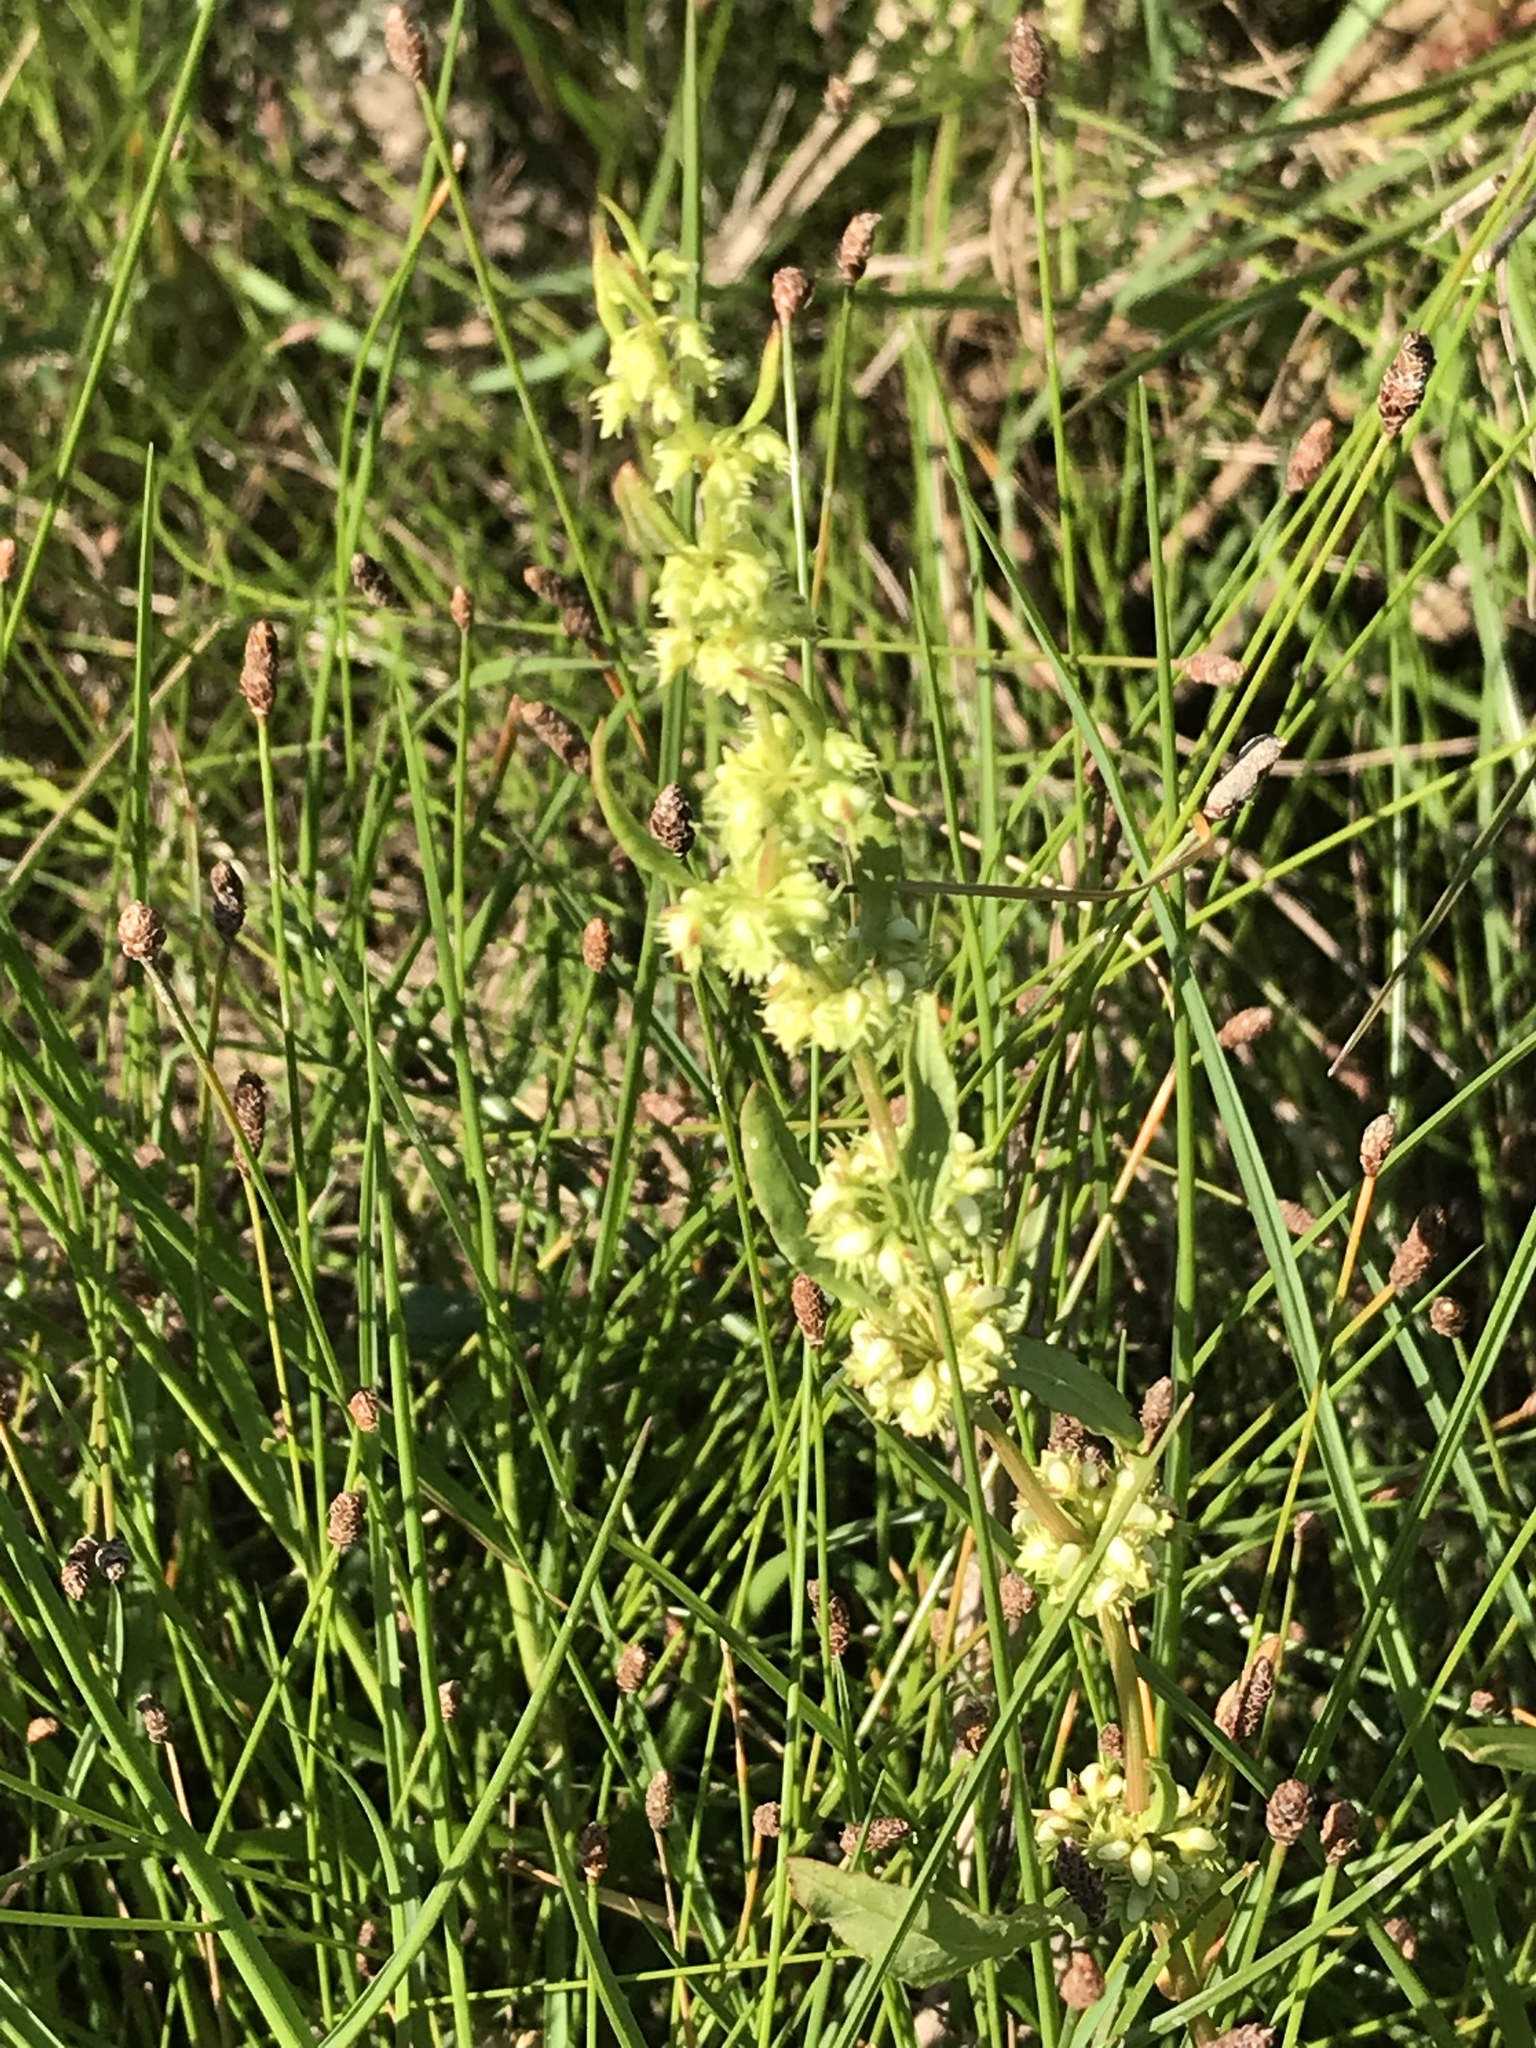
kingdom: Plantae
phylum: Tracheophyta
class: Magnoliopsida
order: Caryophyllales
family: Polygonaceae
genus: Rumex
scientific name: Rumex pulcher
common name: Fiddle dock
